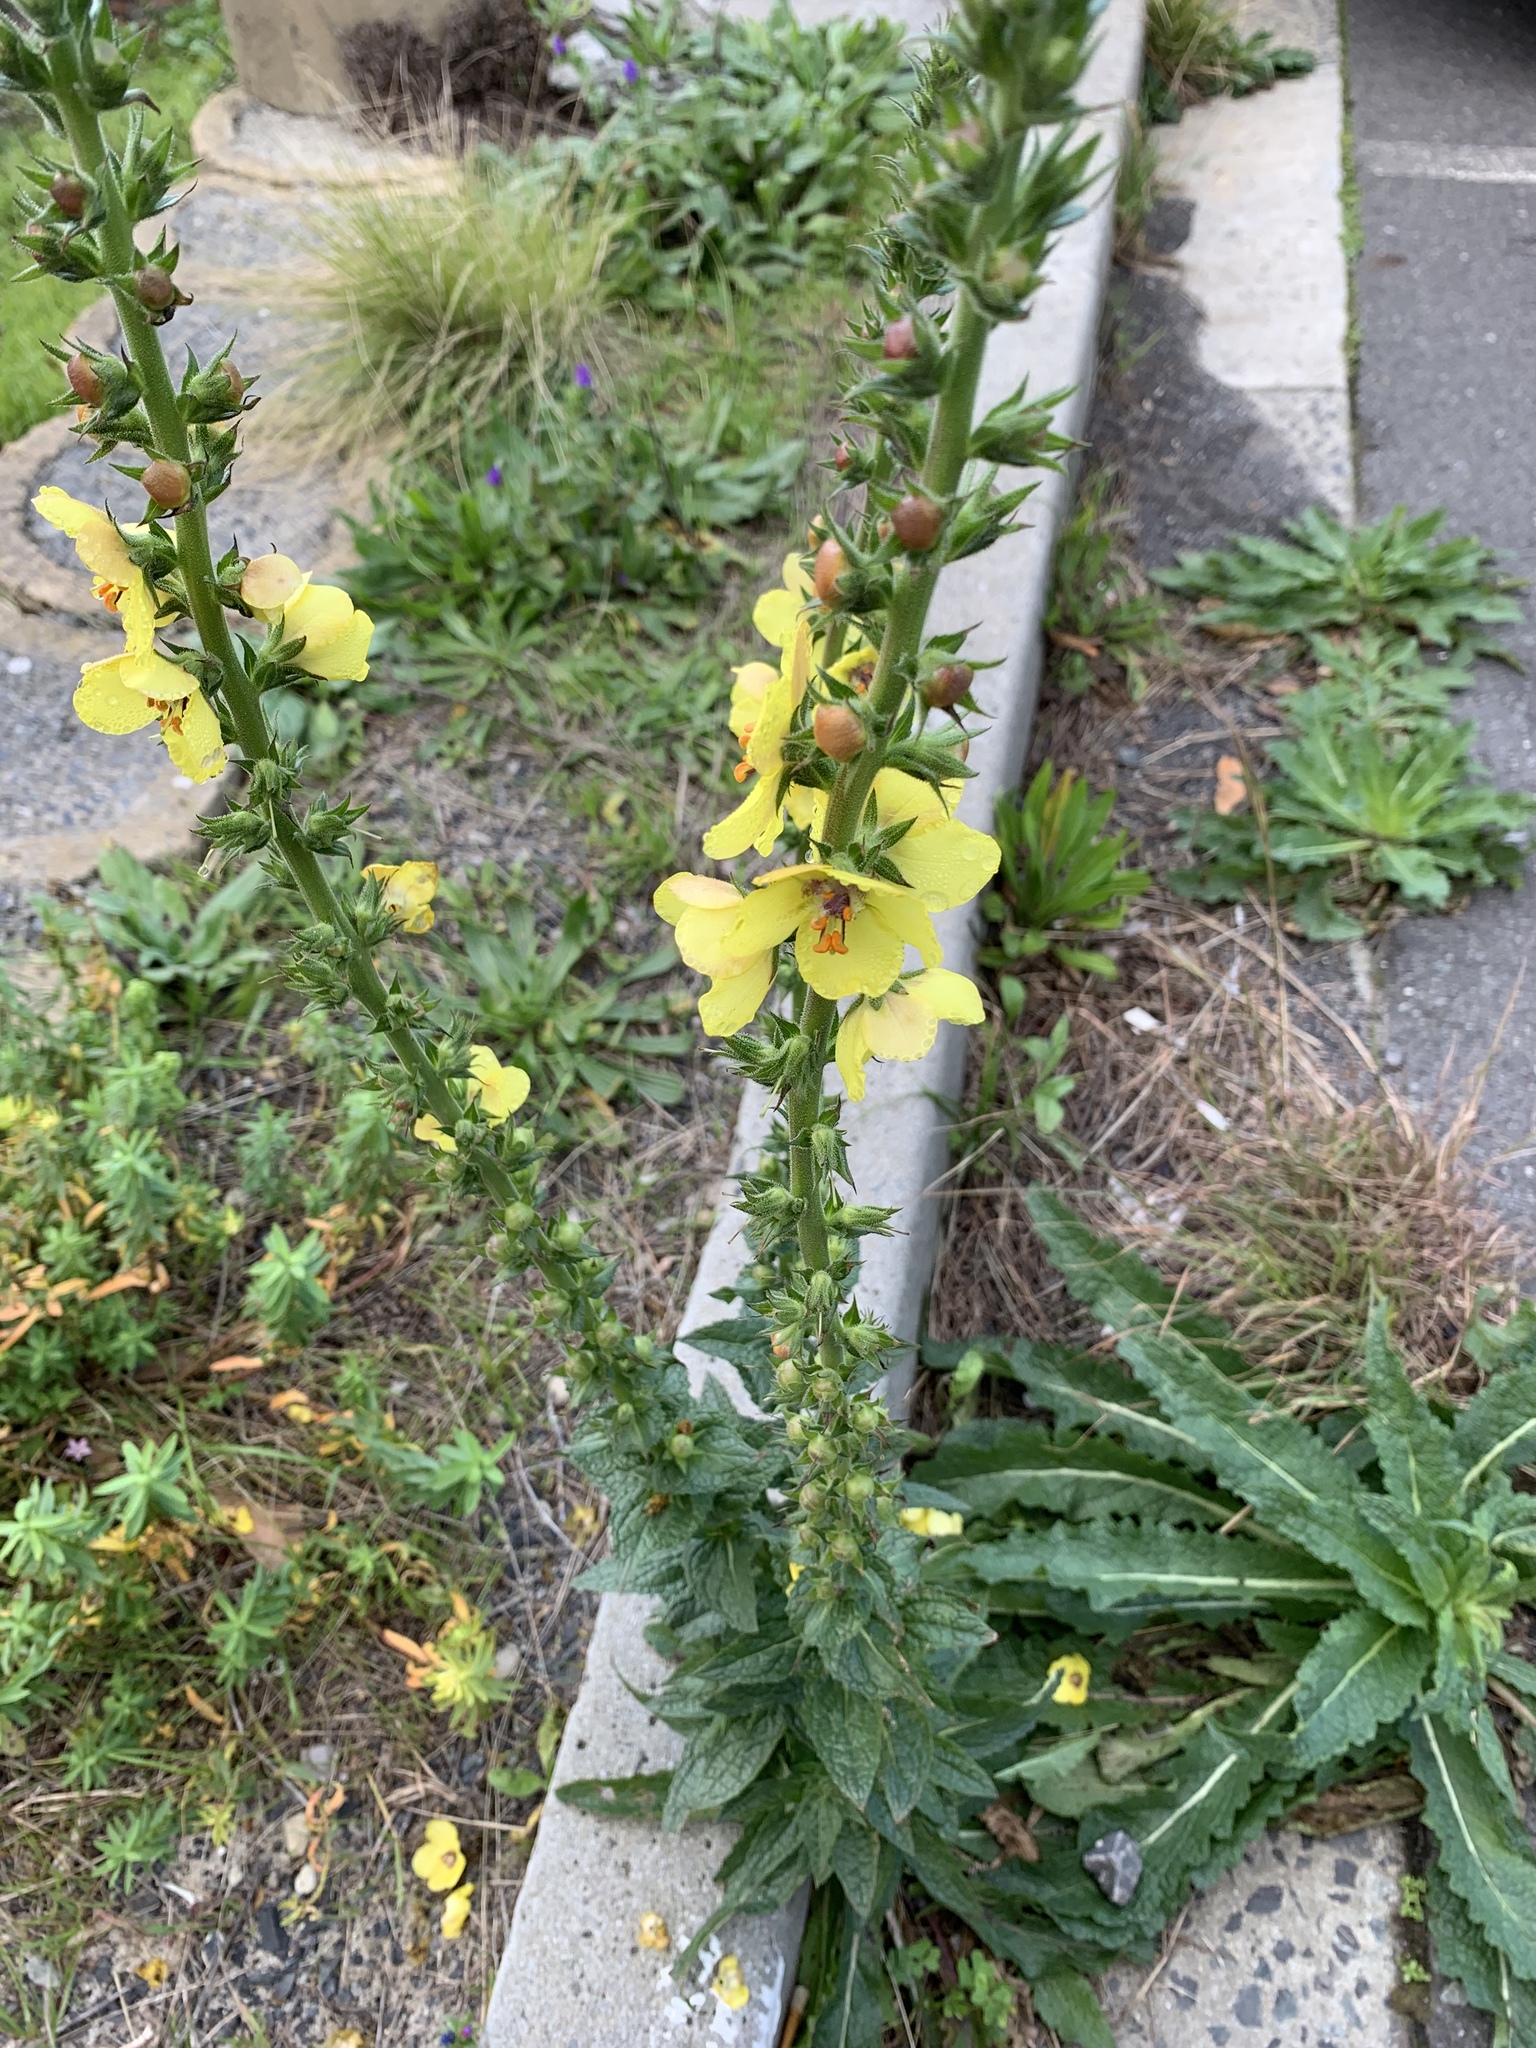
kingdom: Plantae
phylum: Tracheophyta
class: Magnoliopsida
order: Lamiales
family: Scrophulariaceae
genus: Verbascum
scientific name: Verbascum virgatum
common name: Twiggy mullein
